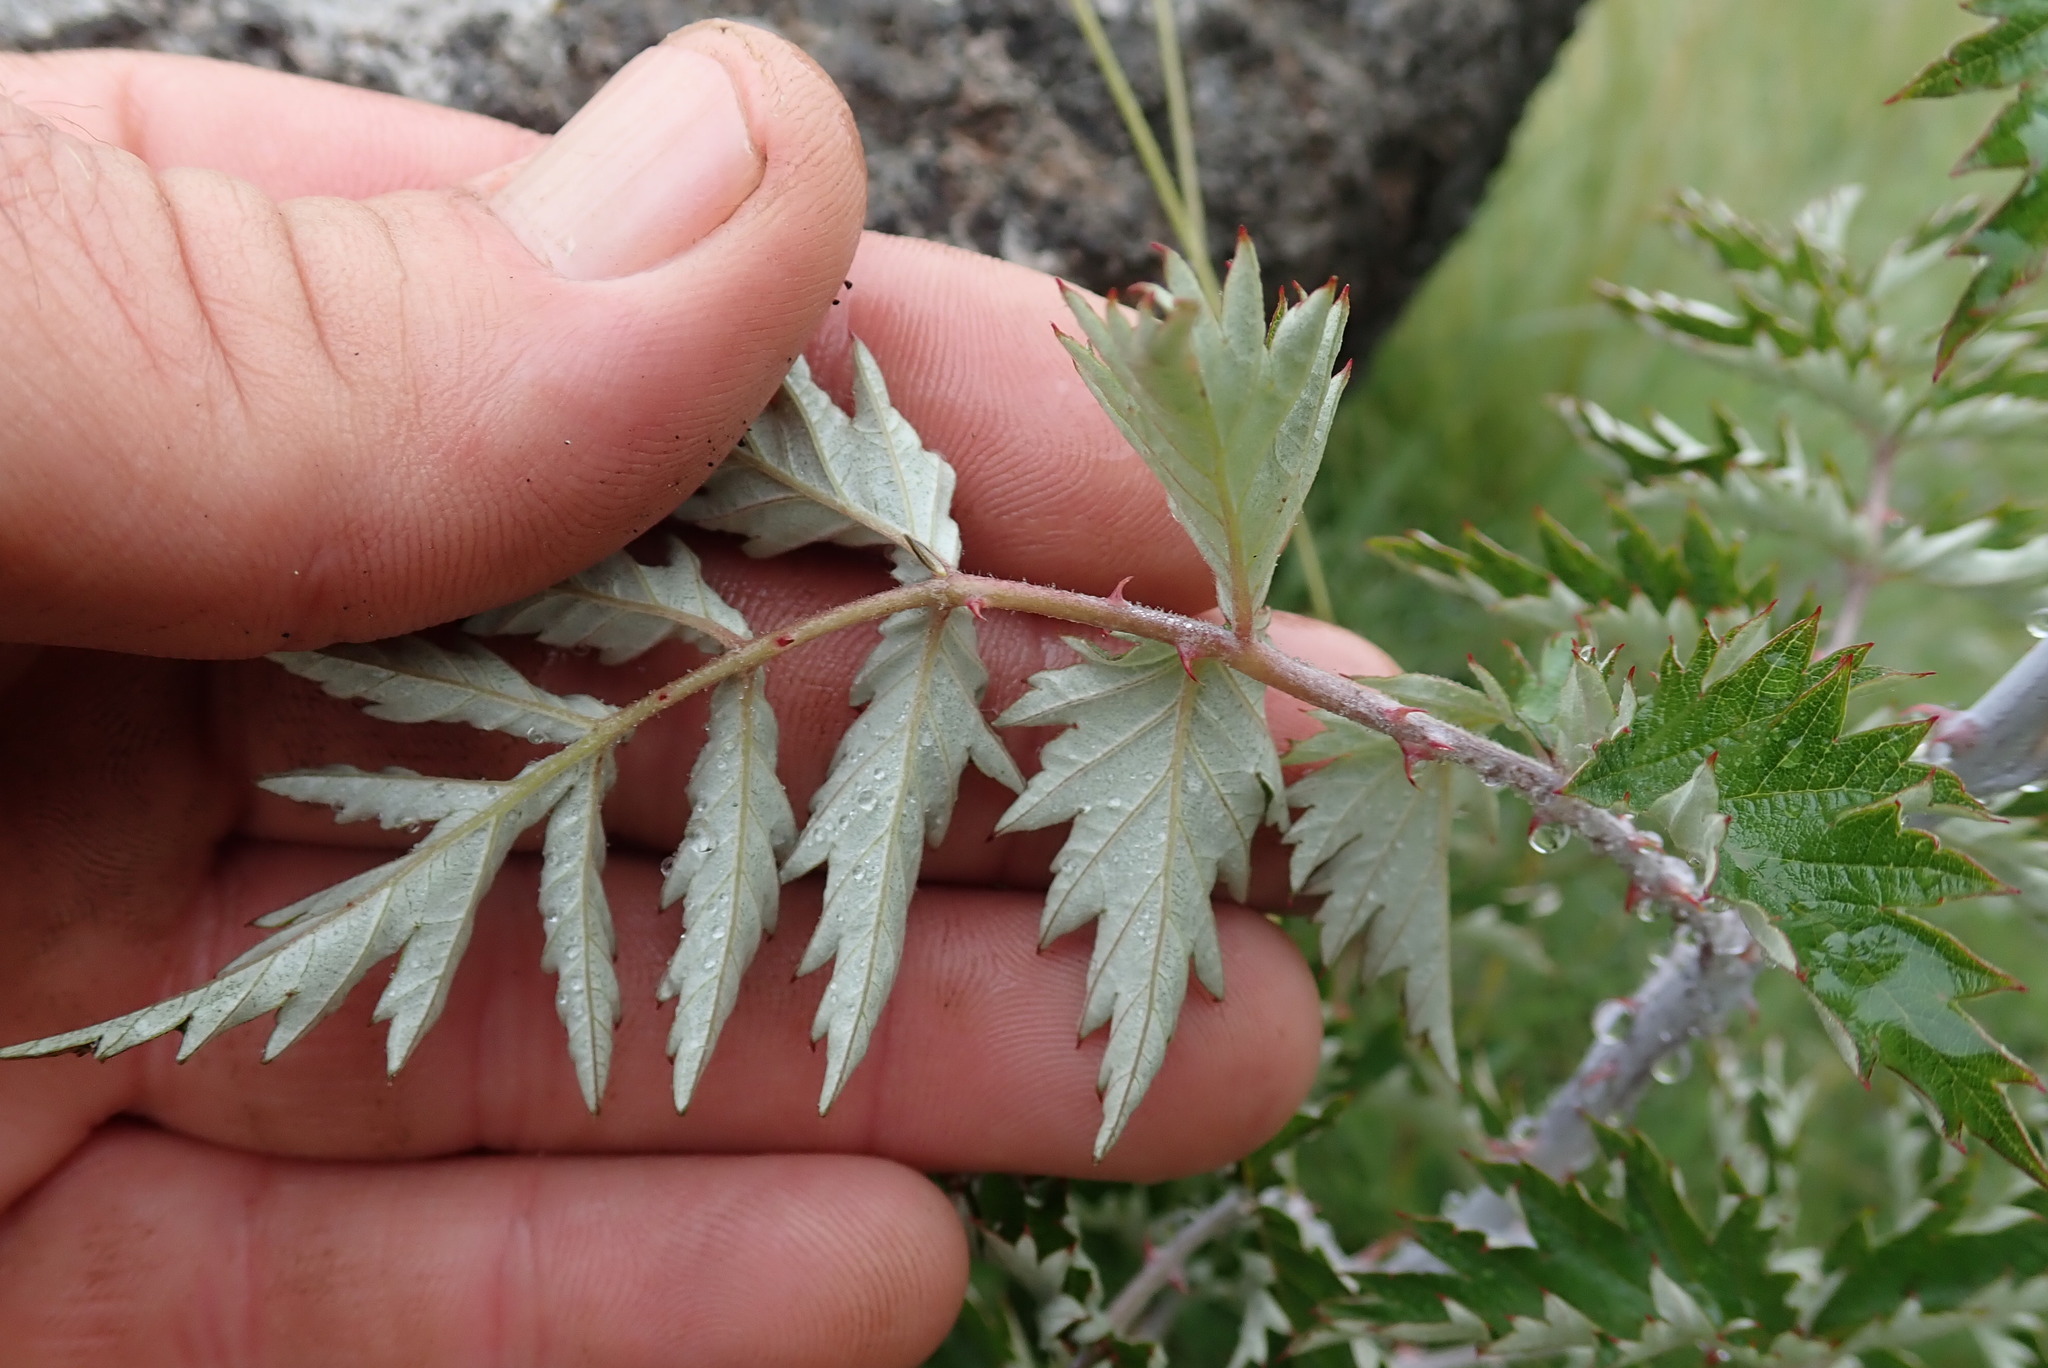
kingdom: Plantae
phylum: Tracheophyta
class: Magnoliopsida
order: Rosales
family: Rosaceae
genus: Rubus
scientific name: Rubus ludwigii
